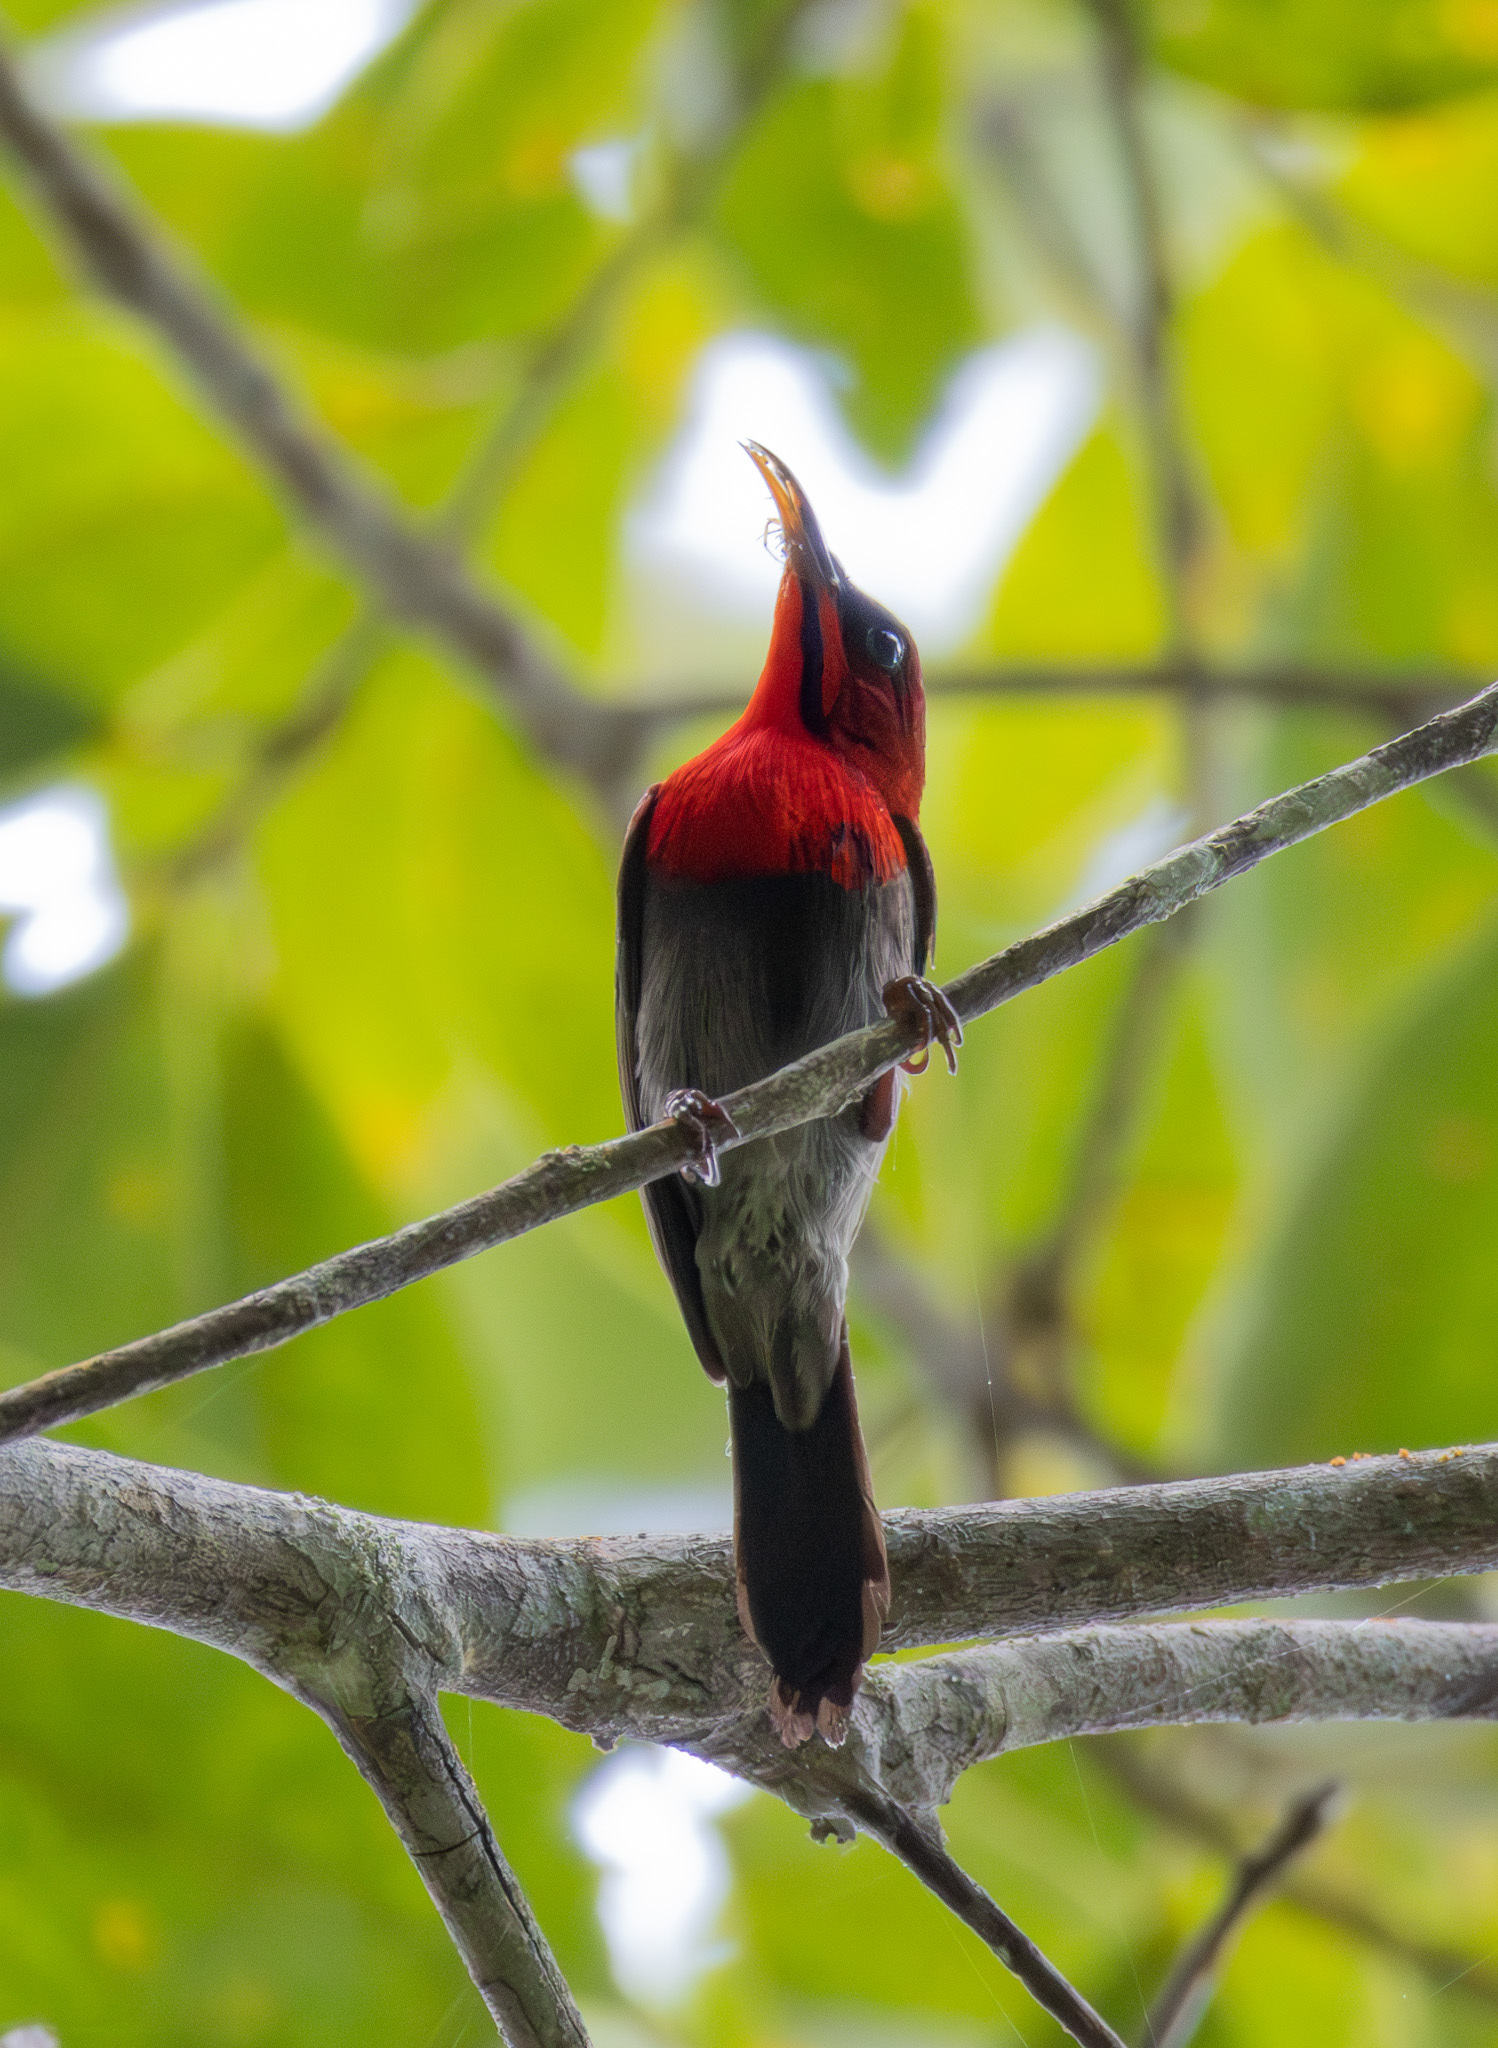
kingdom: Animalia
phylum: Chordata
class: Aves
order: Passeriformes
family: Nectariniidae
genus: Aethopyga
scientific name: Aethopyga siparaja
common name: Crimson sunbird
